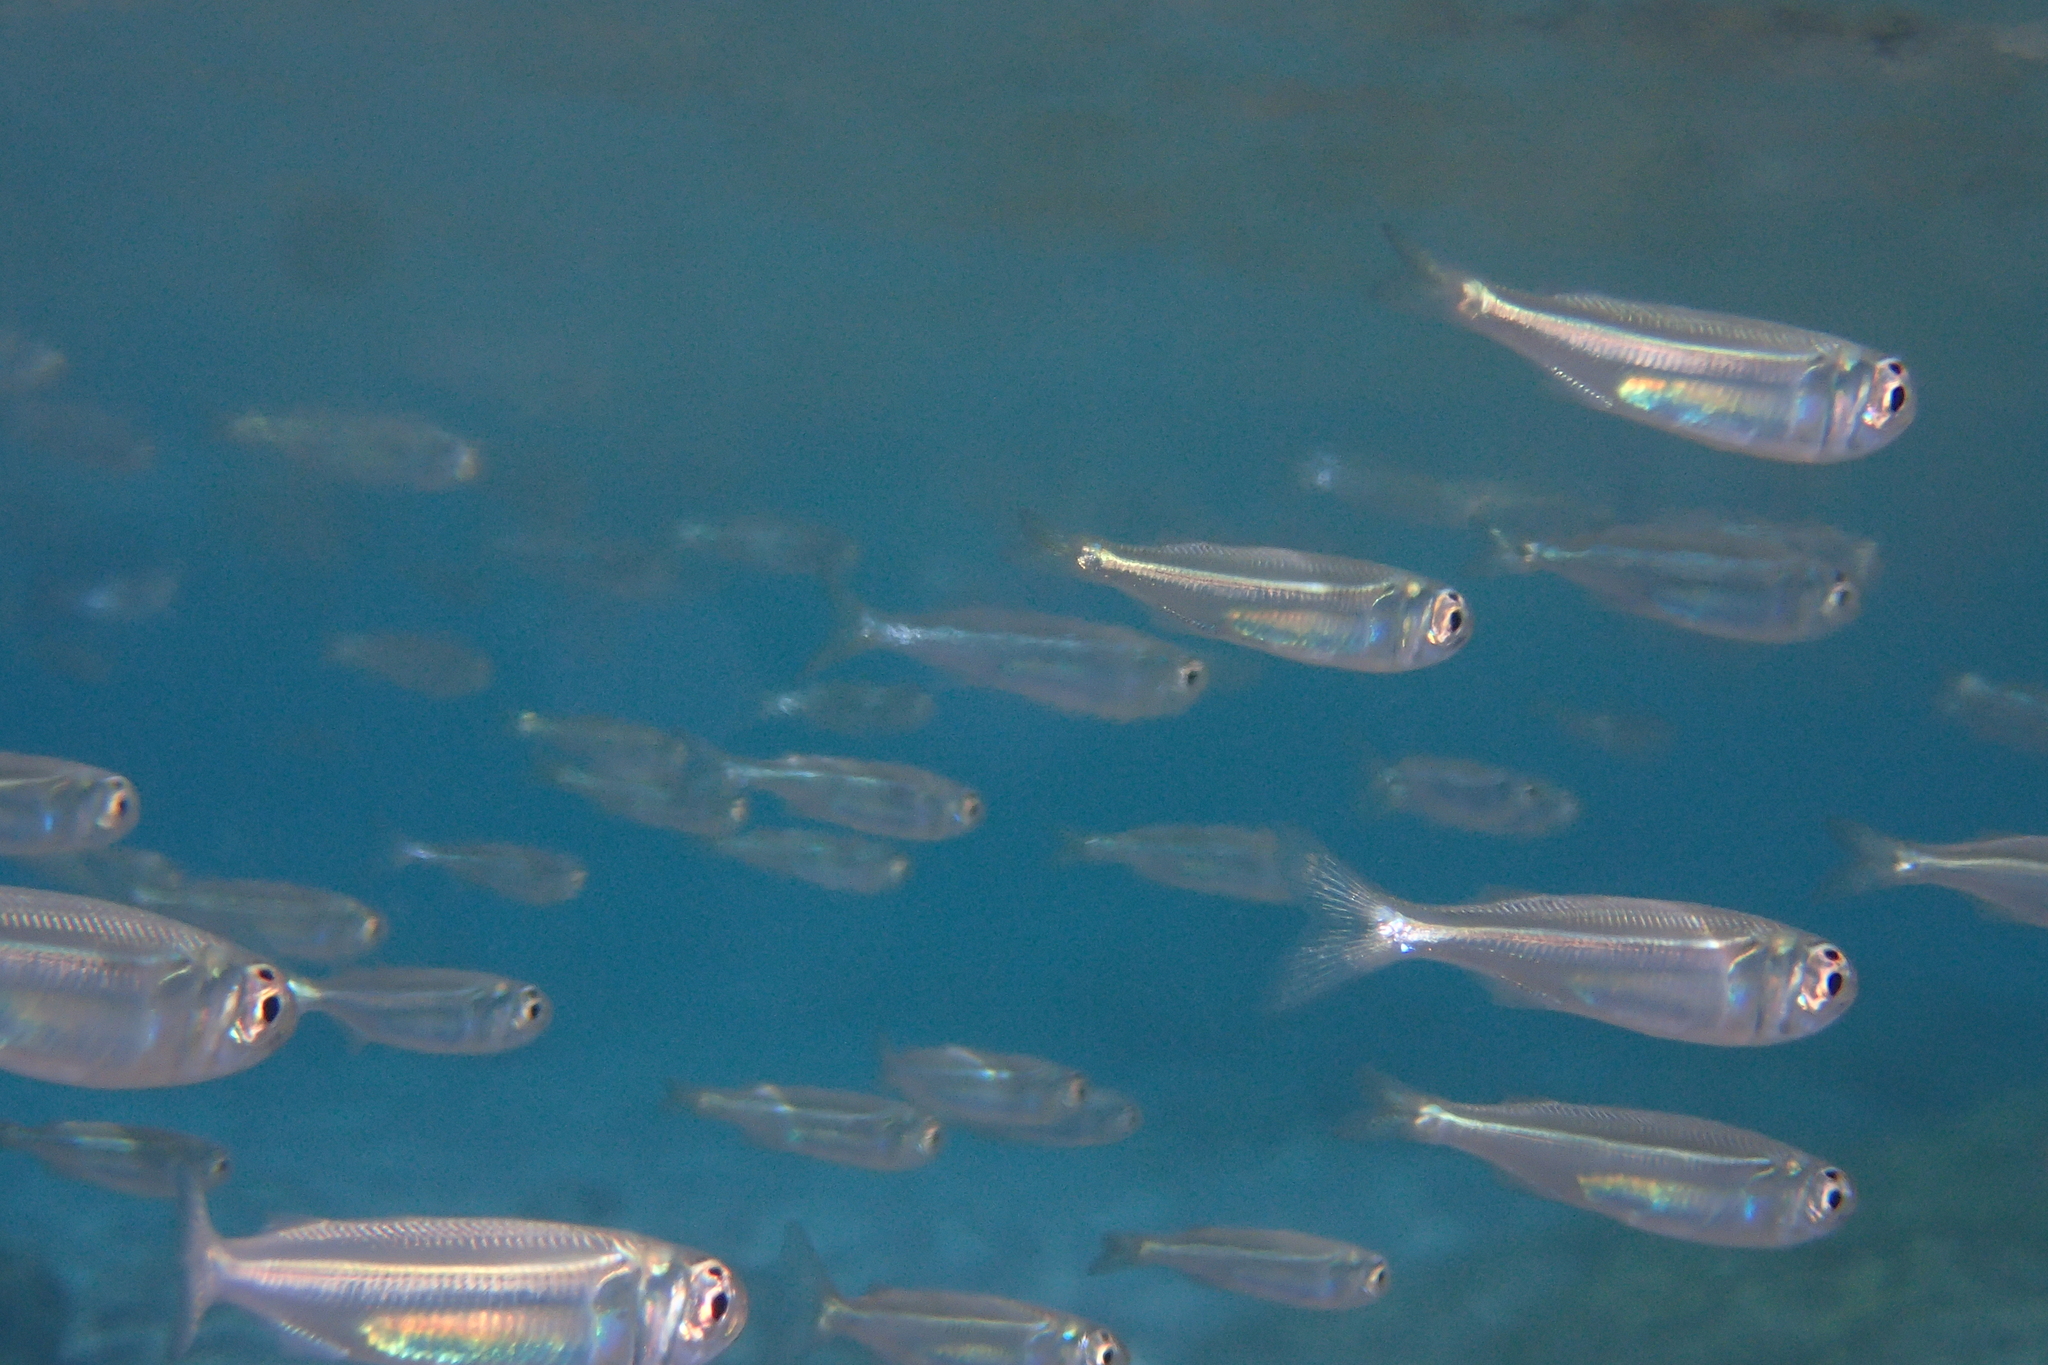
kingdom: Animalia
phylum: Chordata
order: Atheriniformes
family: Atherinidae
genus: Atherinomorus
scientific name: Atherinomorus forskalii
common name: Red sea hardyhead silverside
